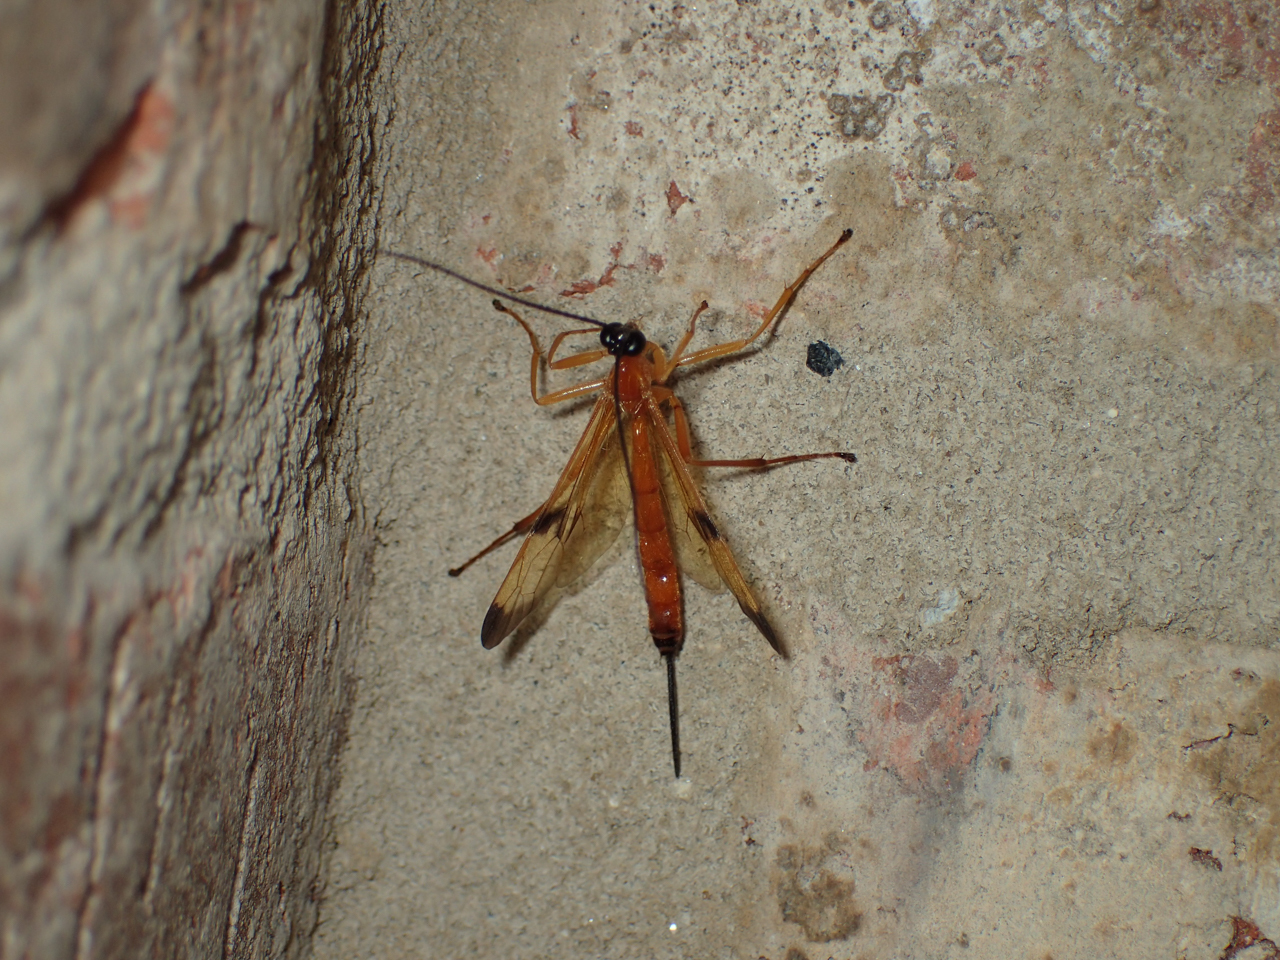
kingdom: Animalia
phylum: Arthropoda
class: Insecta
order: Hymenoptera
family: Ichneumonidae
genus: Acrotaphus
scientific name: Acrotaphus wiltii
